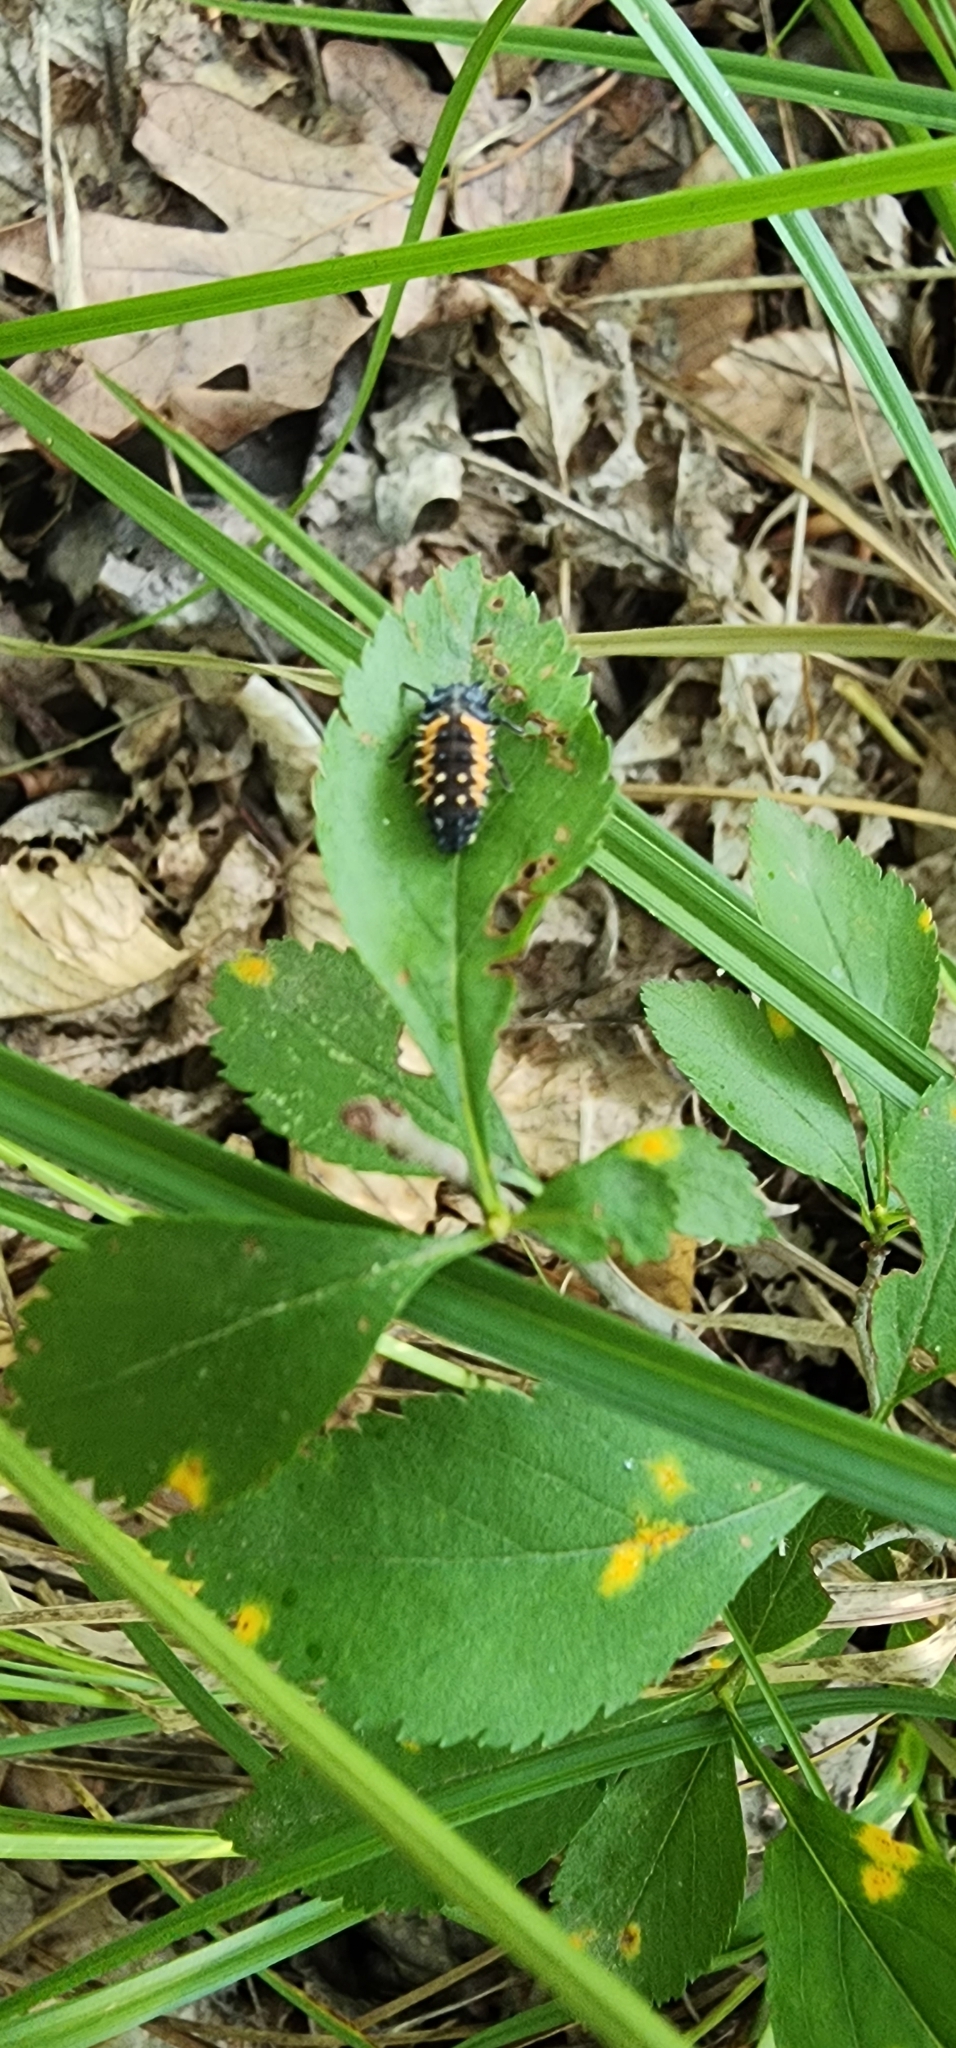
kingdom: Animalia
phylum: Arthropoda
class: Insecta
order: Coleoptera
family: Coccinellidae
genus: Harmonia
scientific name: Harmonia axyridis
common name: Harlequin ladybird
